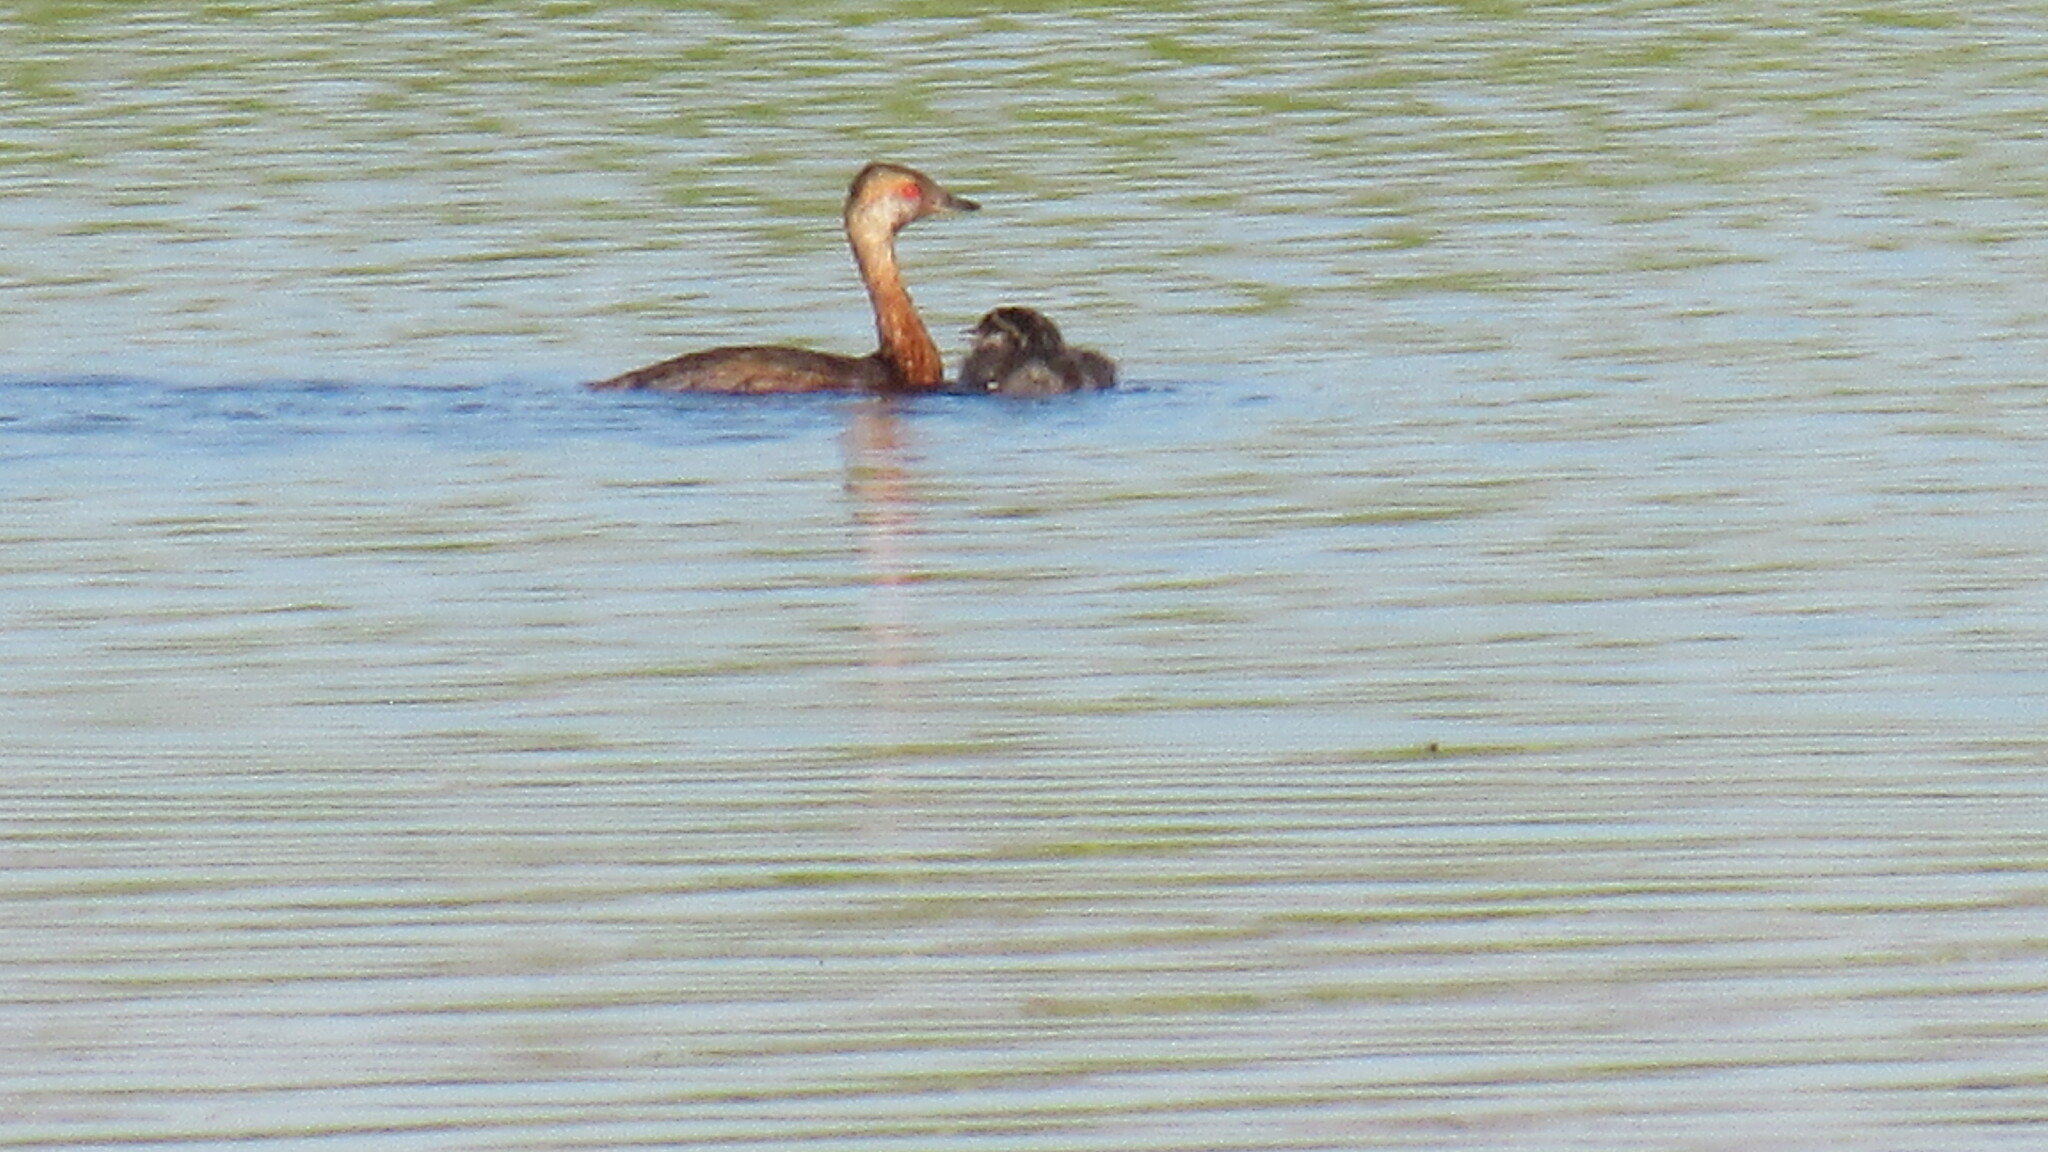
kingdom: Animalia
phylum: Chordata
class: Aves
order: Podicipediformes
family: Podicipedidae
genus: Podiceps
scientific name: Podiceps auritus
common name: Horned grebe
